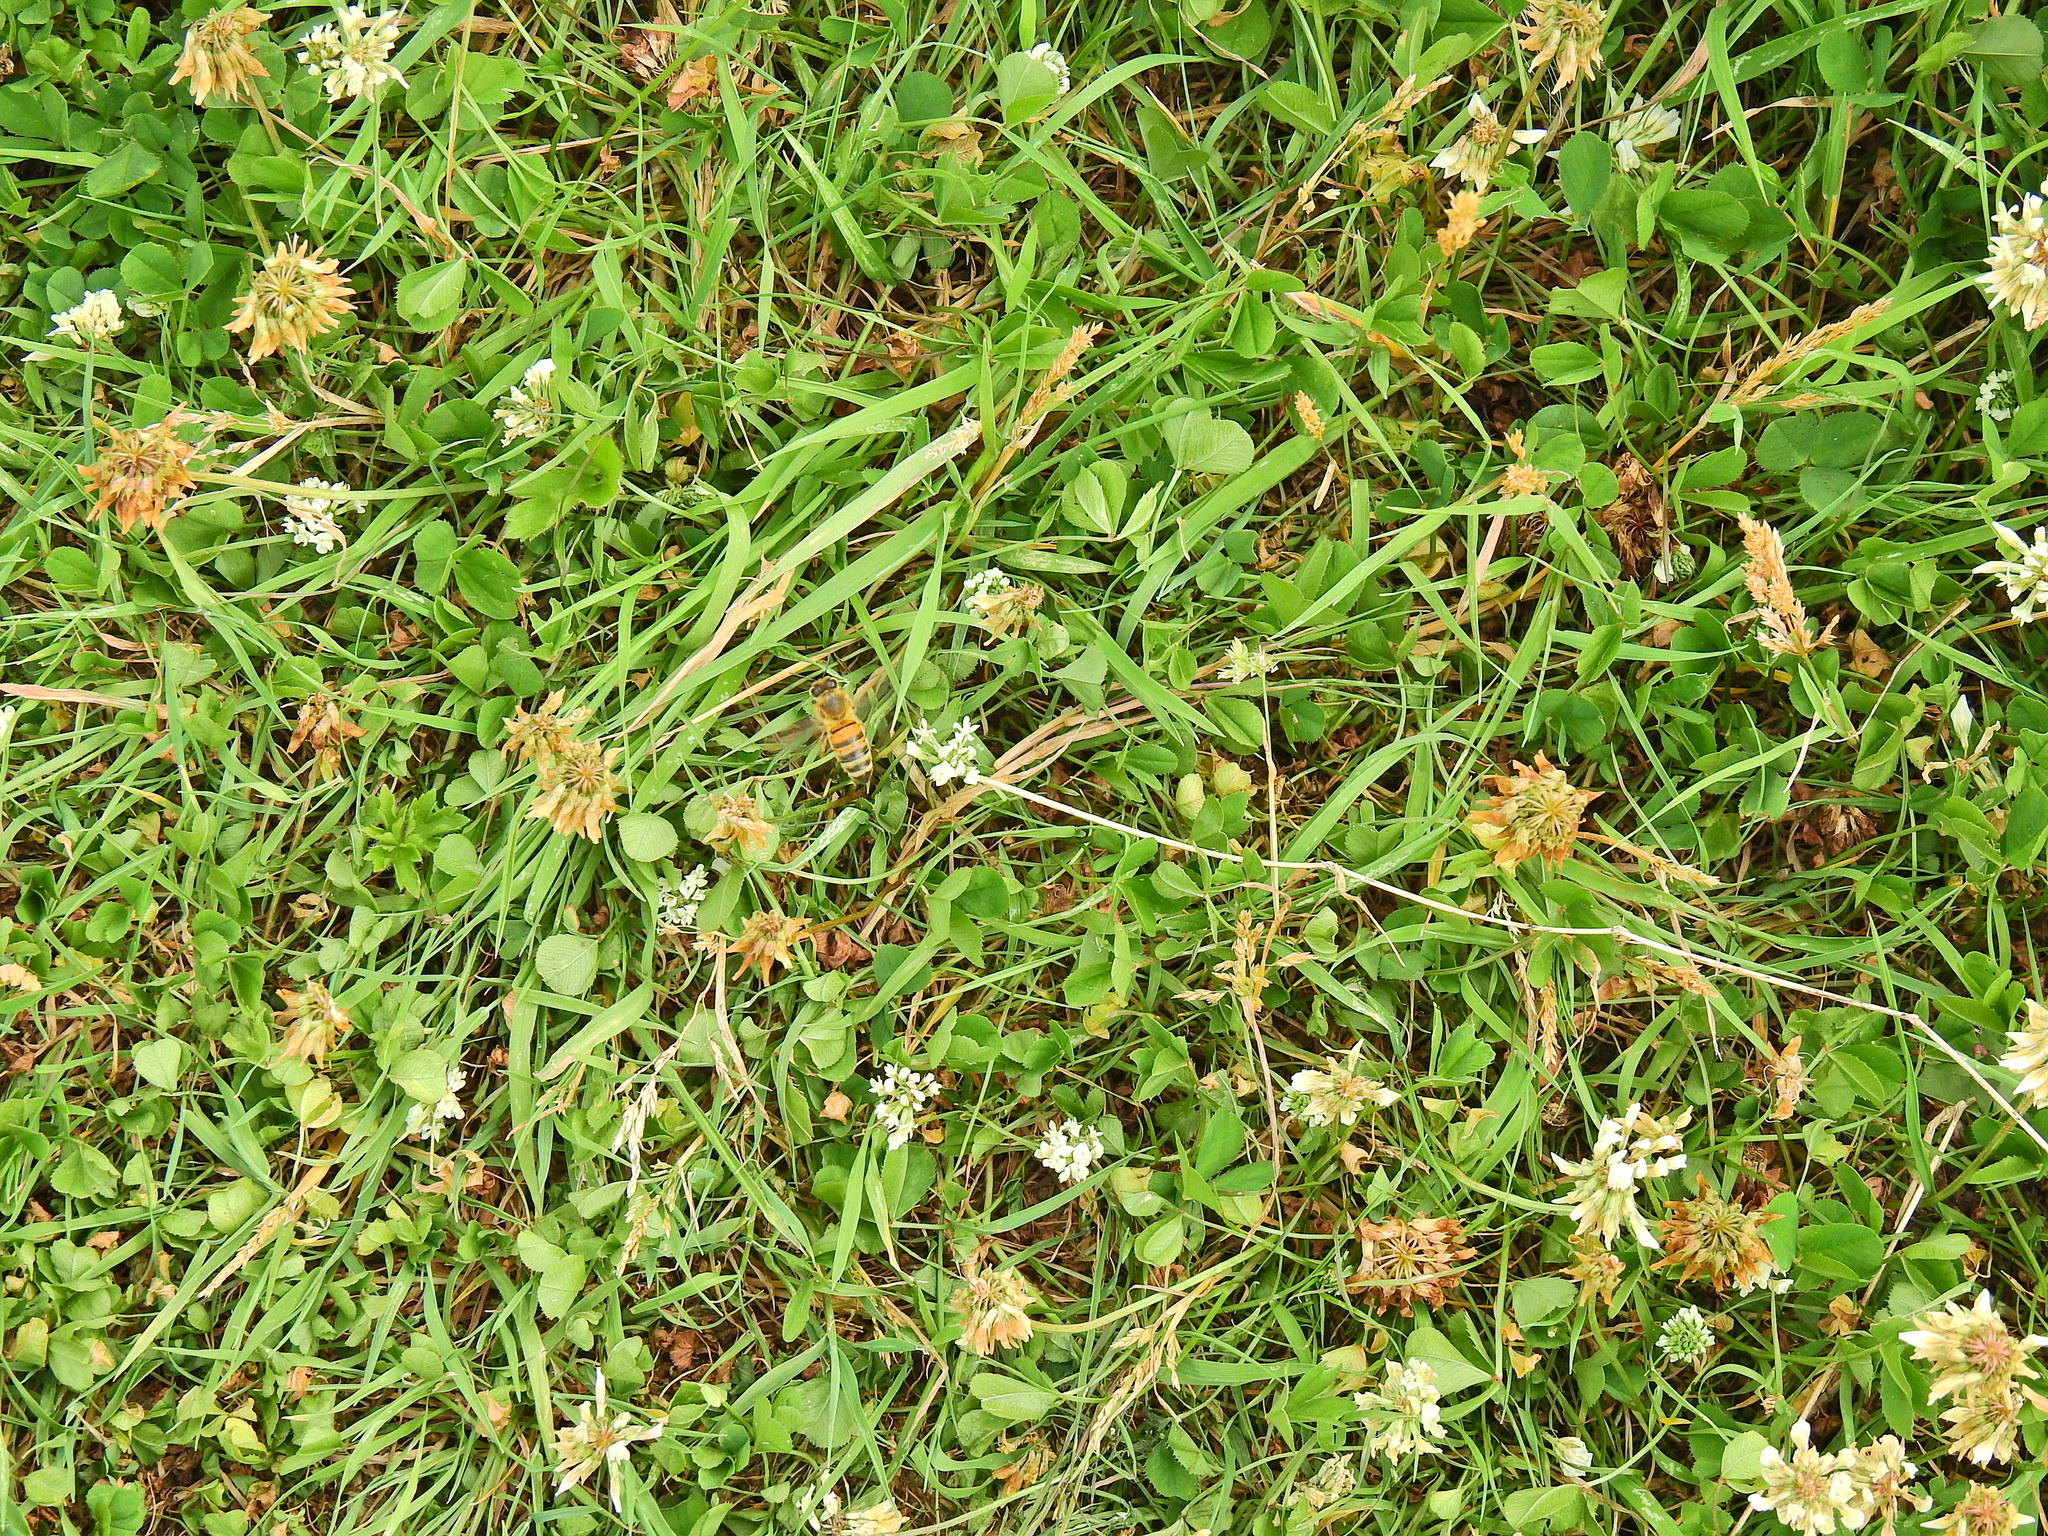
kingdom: Animalia
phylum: Arthropoda
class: Insecta
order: Hymenoptera
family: Apidae
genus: Apis
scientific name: Apis mellifera
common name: Honey bee
